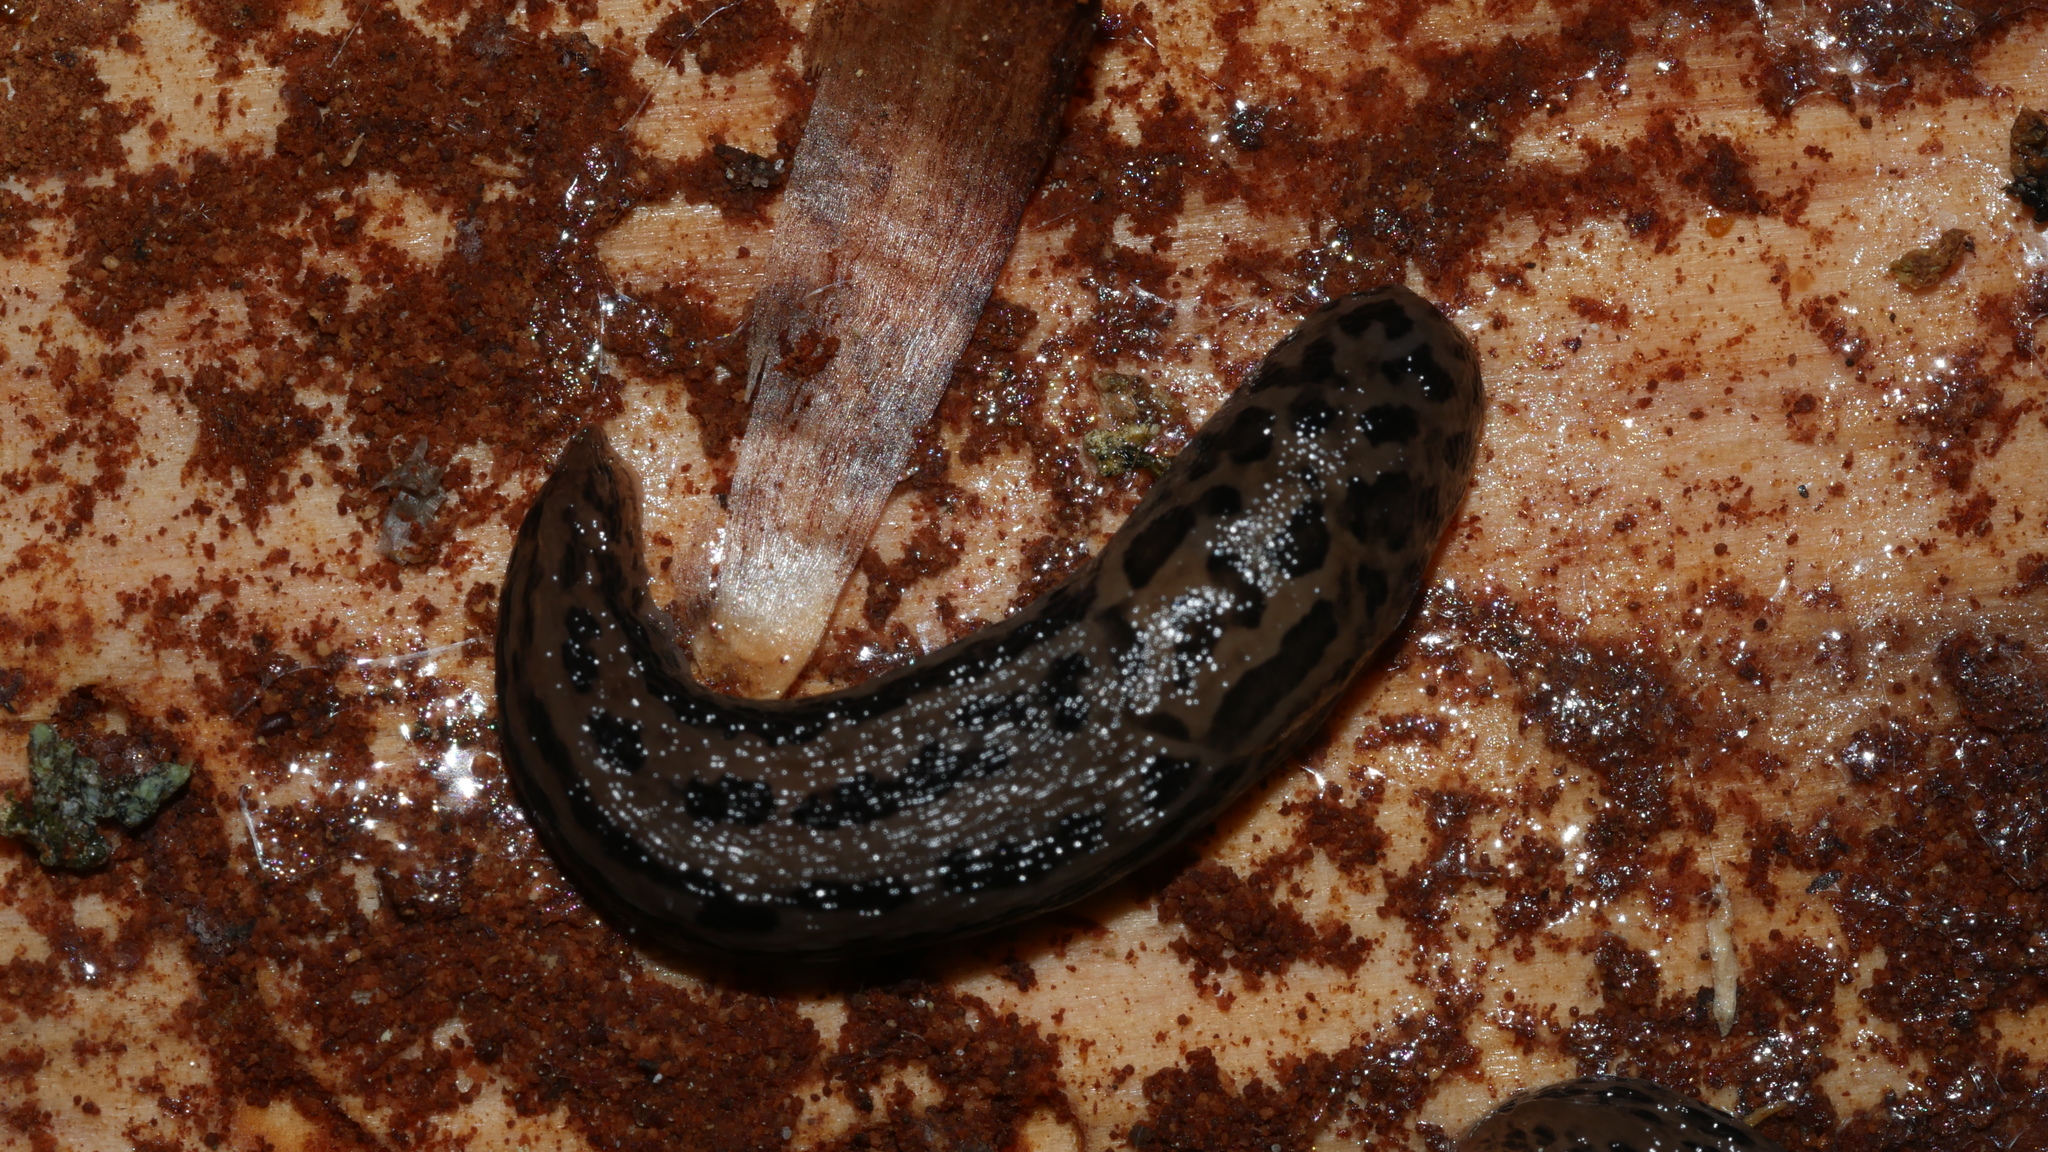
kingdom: Animalia
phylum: Mollusca
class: Gastropoda
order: Stylommatophora
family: Limacidae
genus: Limax
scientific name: Limax maximus
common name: Great grey slug
